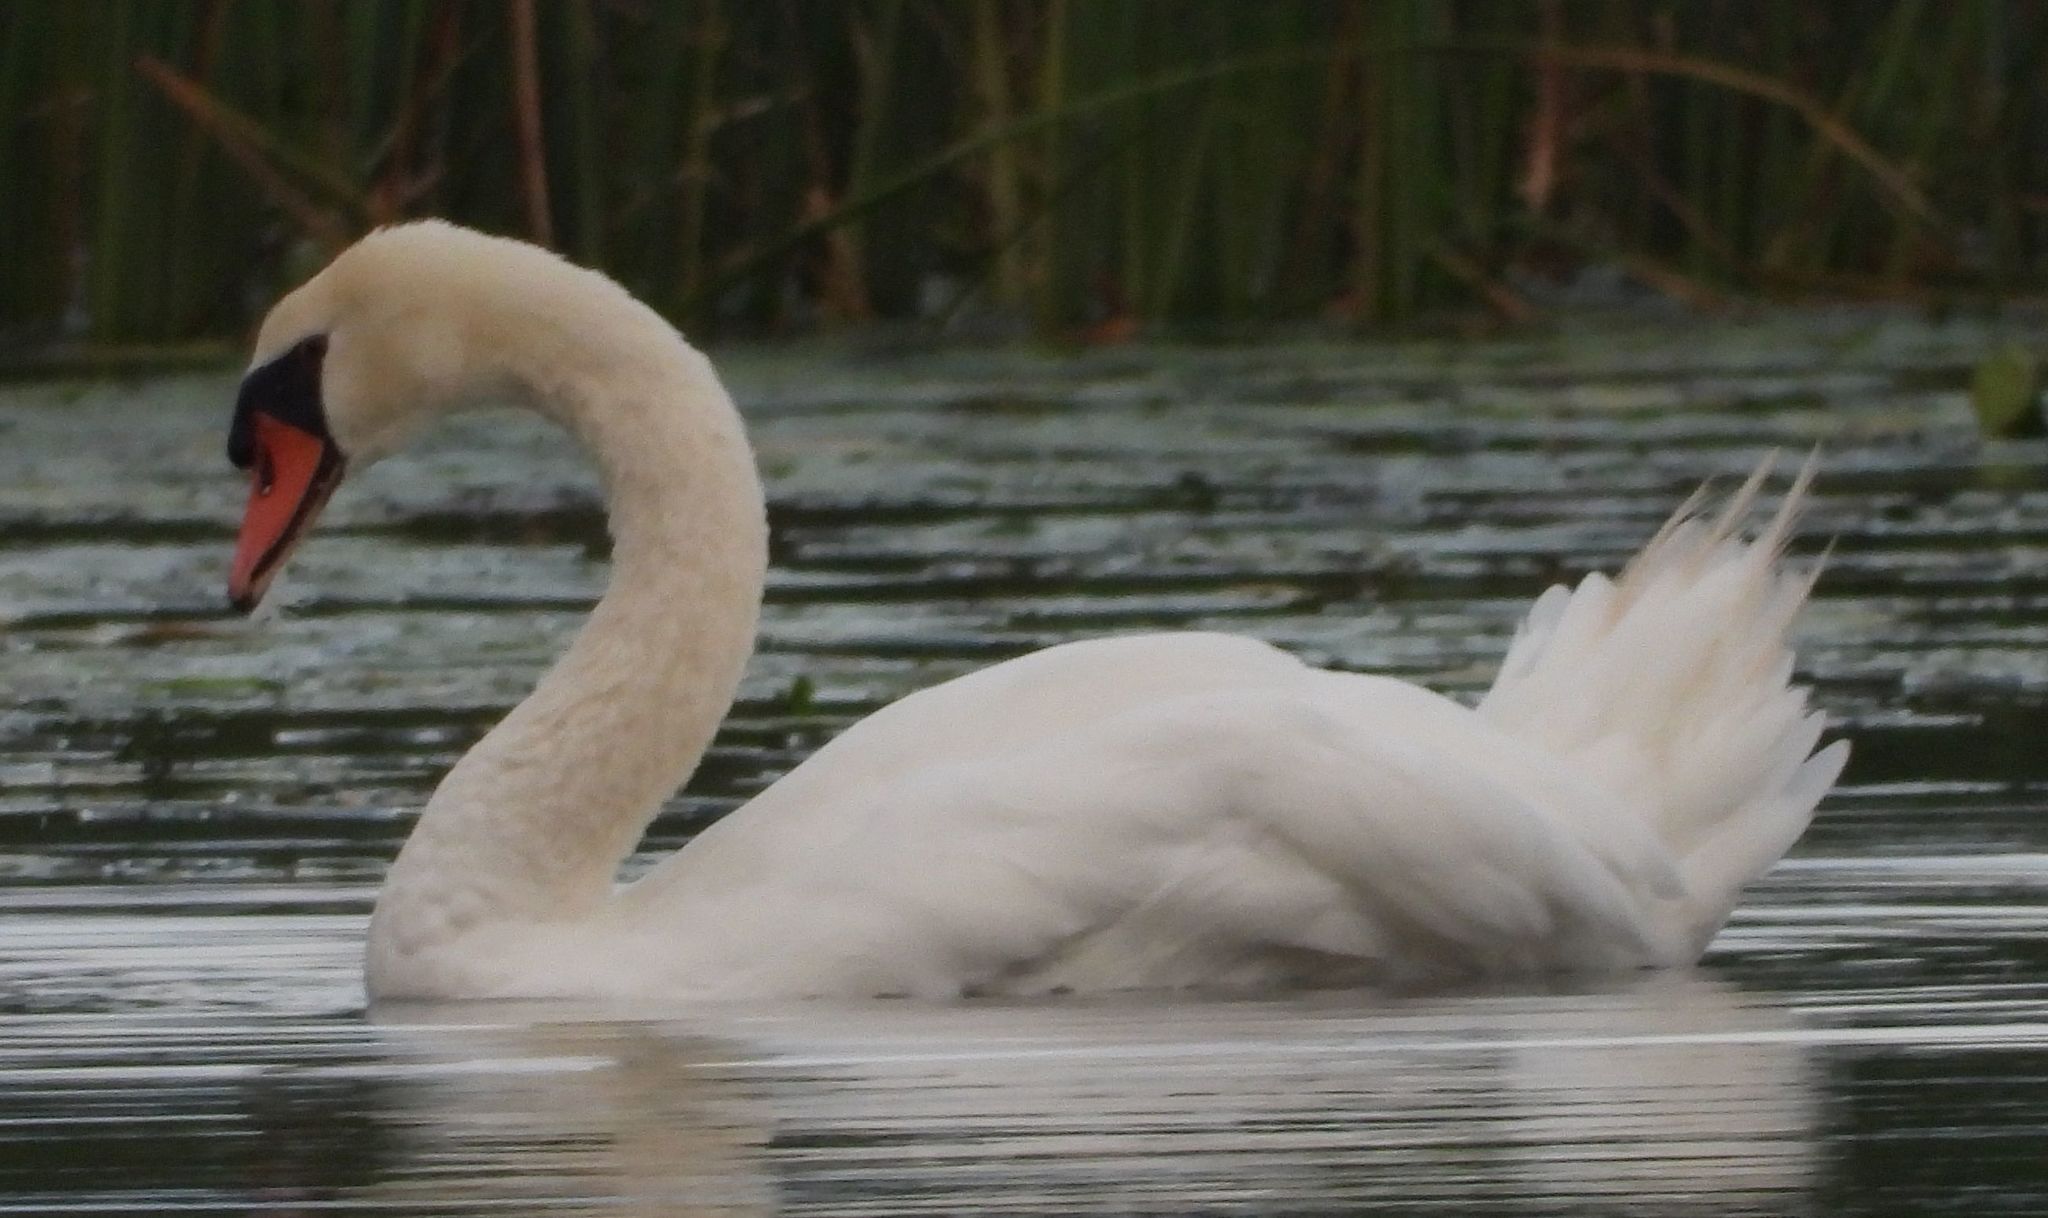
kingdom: Animalia
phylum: Chordata
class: Aves
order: Anseriformes
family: Anatidae
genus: Cygnus
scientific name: Cygnus olor
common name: Mute swan
